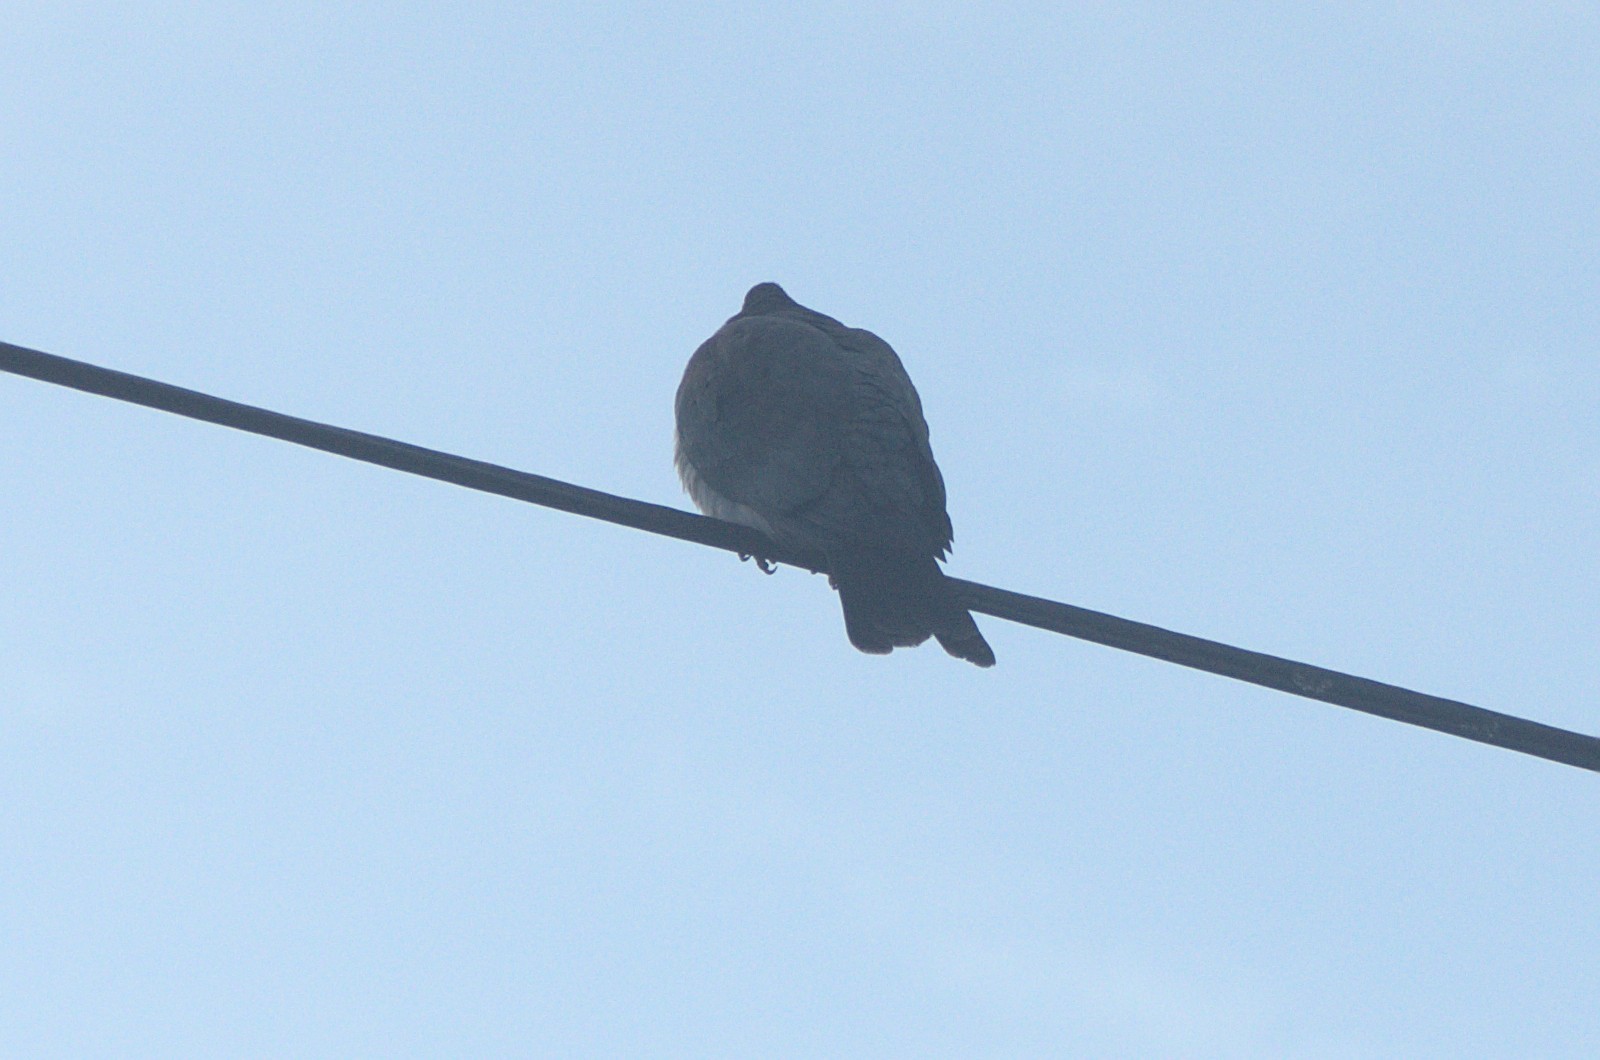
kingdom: Animalia
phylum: Chordata
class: Aves
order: Columbiformes
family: Columbidae
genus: Hemiphaga
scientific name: Hemiphaga novaeseelandiae
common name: New zealand pigeon
